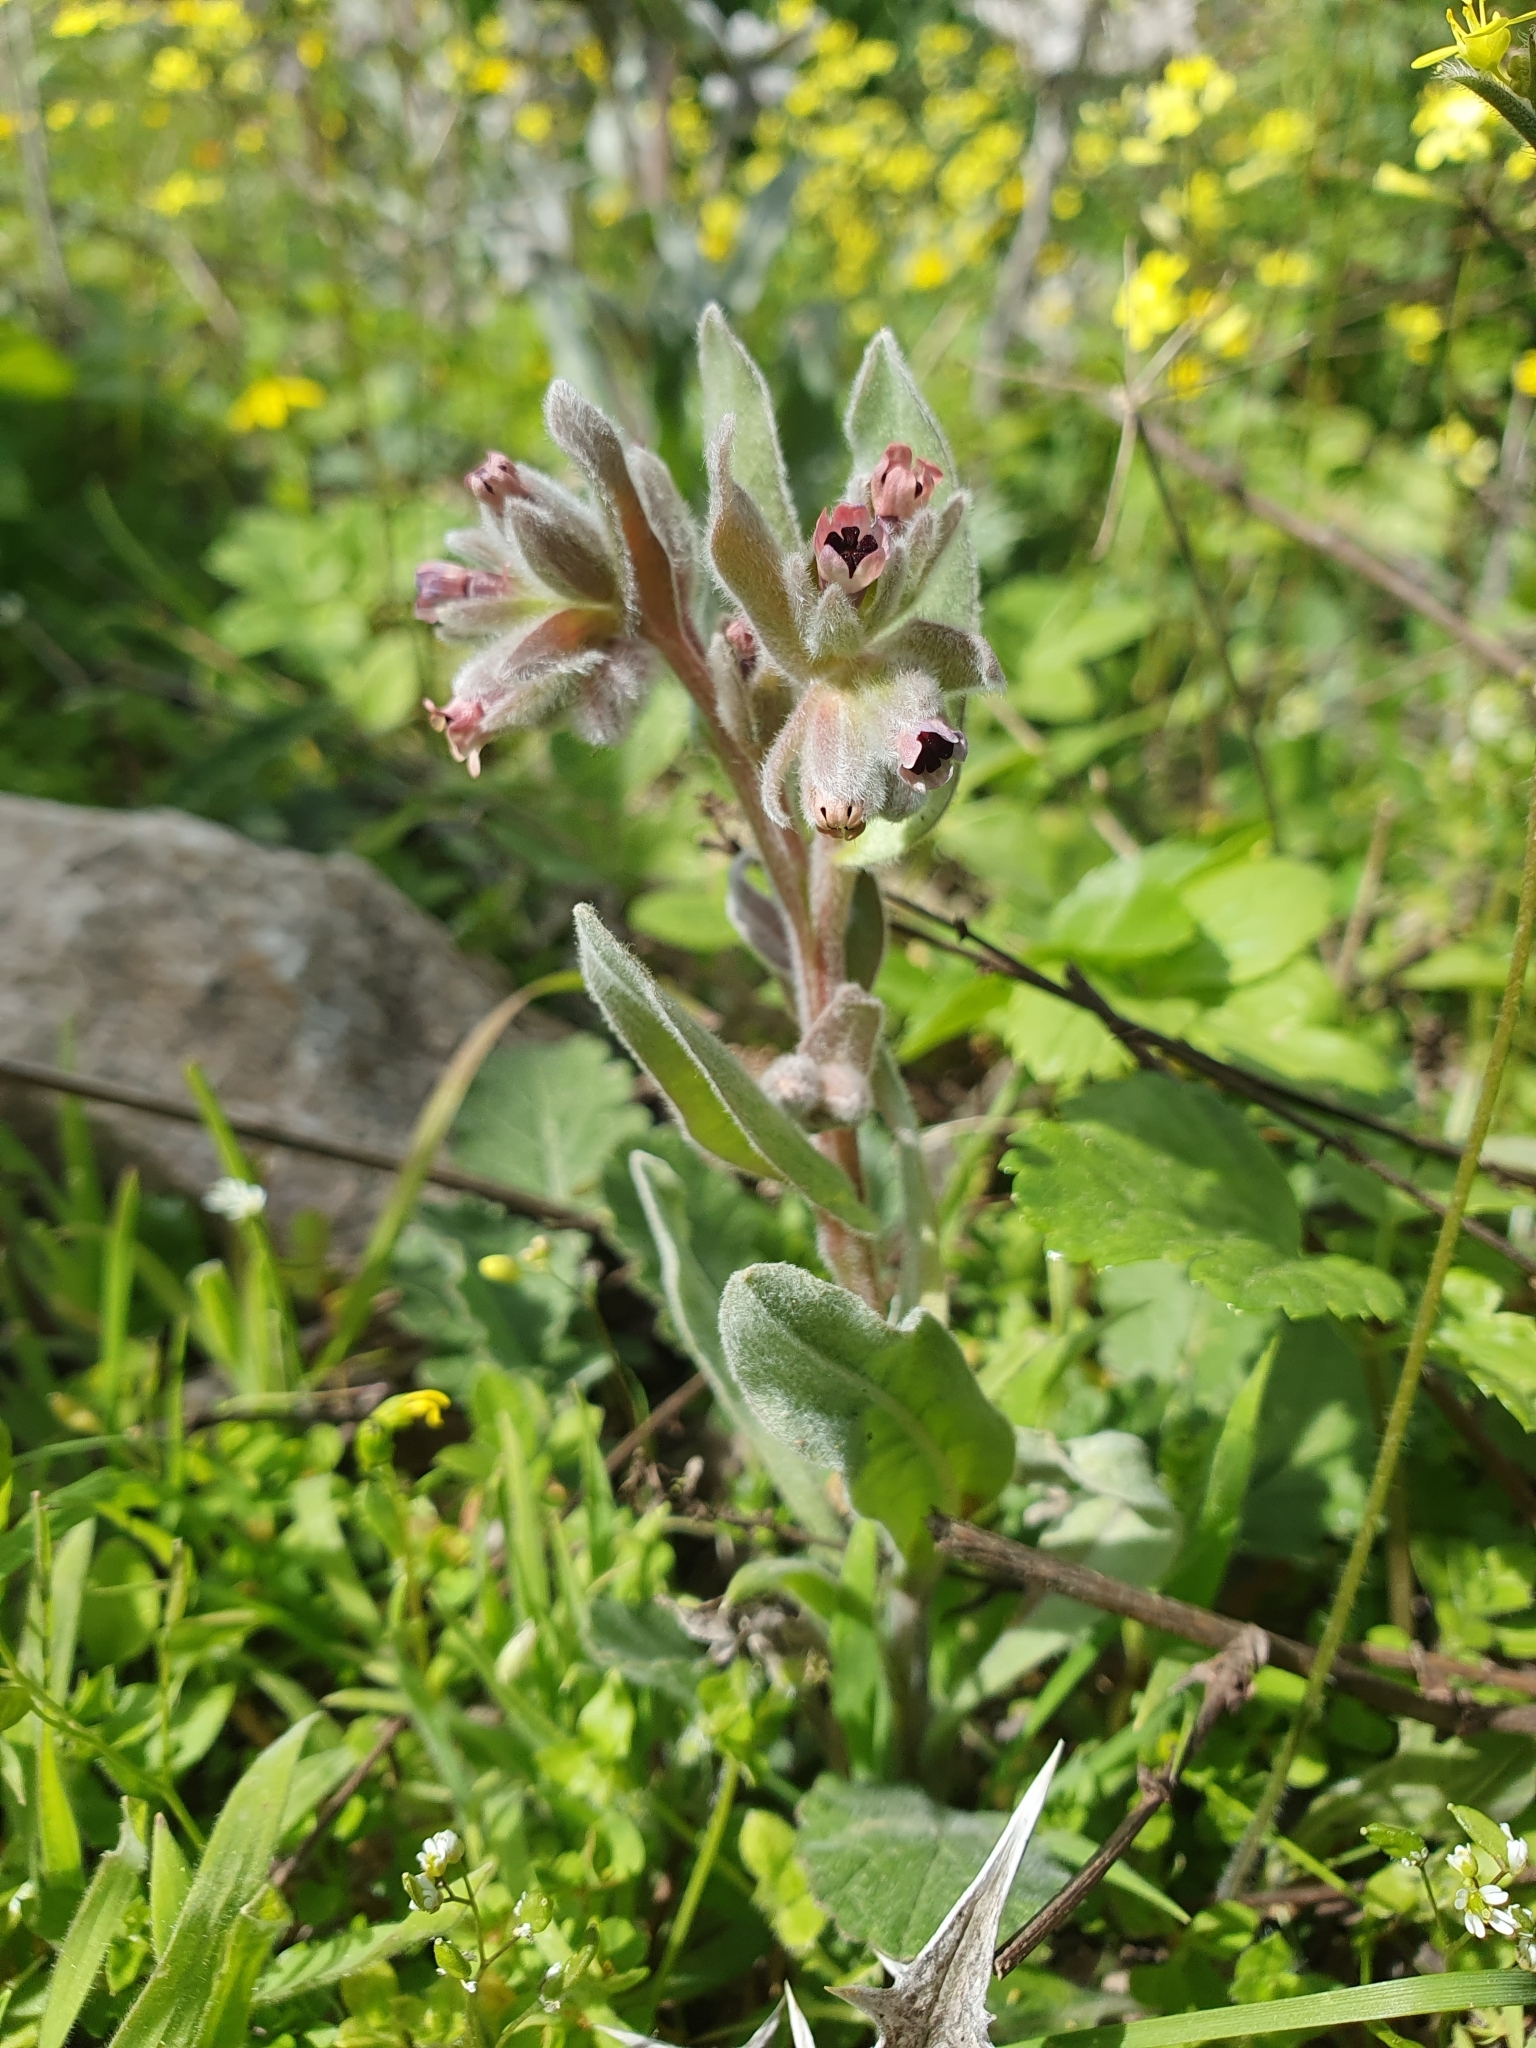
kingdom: Plantae
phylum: Tracheophyta
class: Magnoliopsida
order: Boraginales
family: Boraginaceae
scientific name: Boraginaceae
